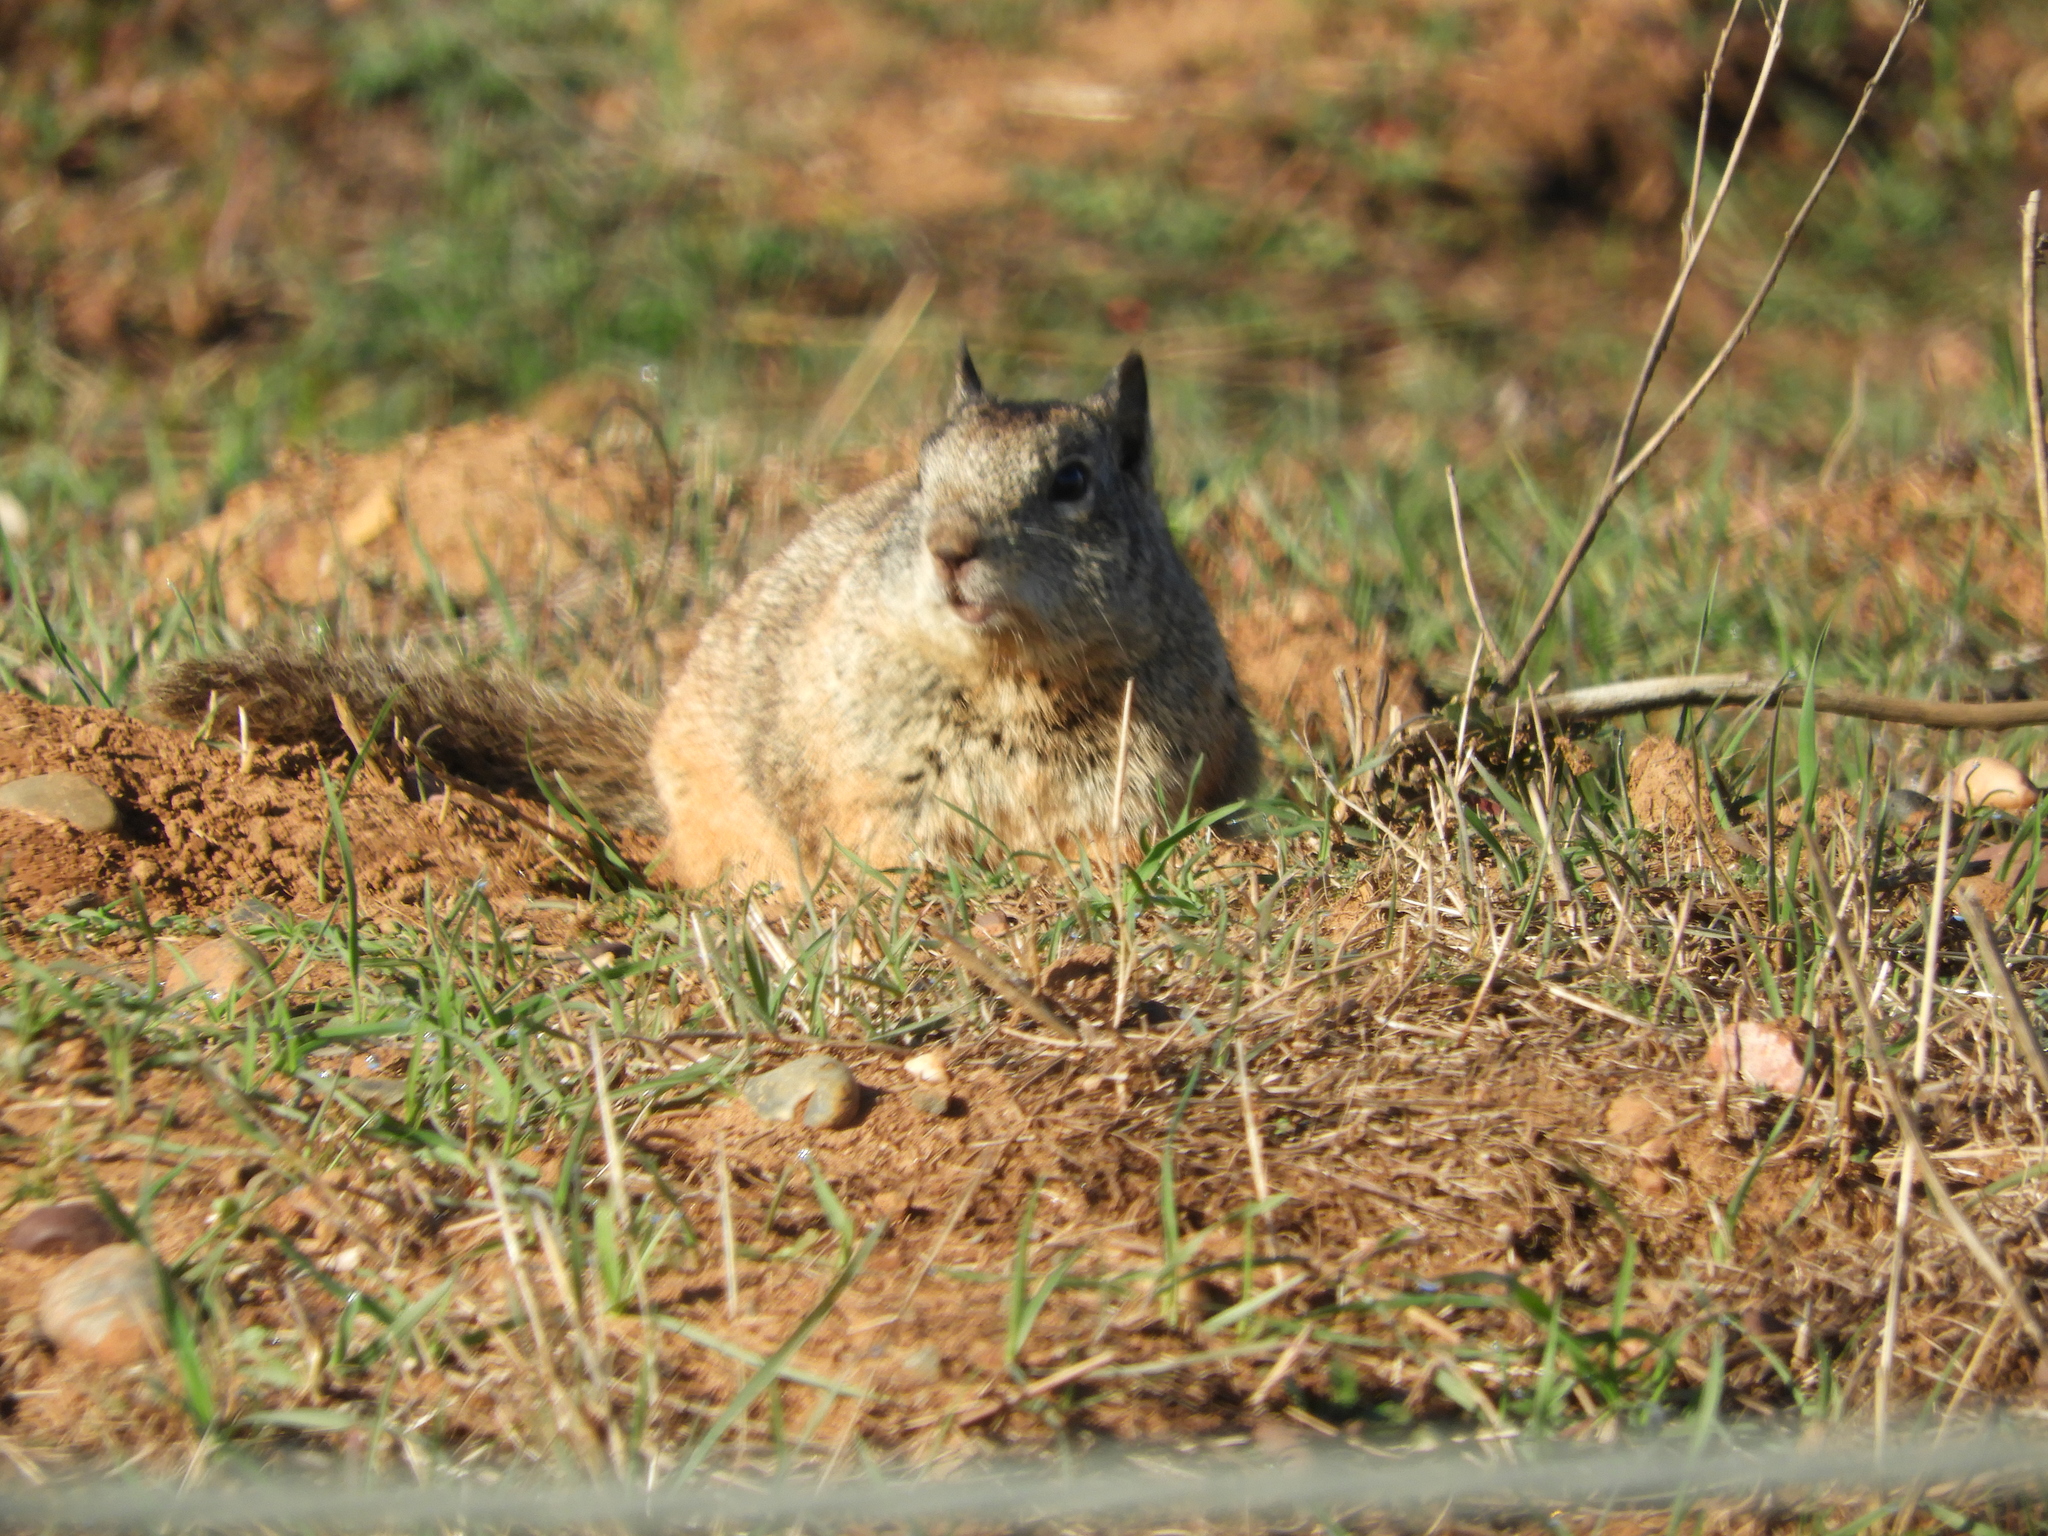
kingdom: Animalia
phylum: Chordata
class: Mammalia
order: Rodentia
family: Sciuridae
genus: Otospermophilus
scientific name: Otospermophilus beecheyi
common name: California ground squirrel
